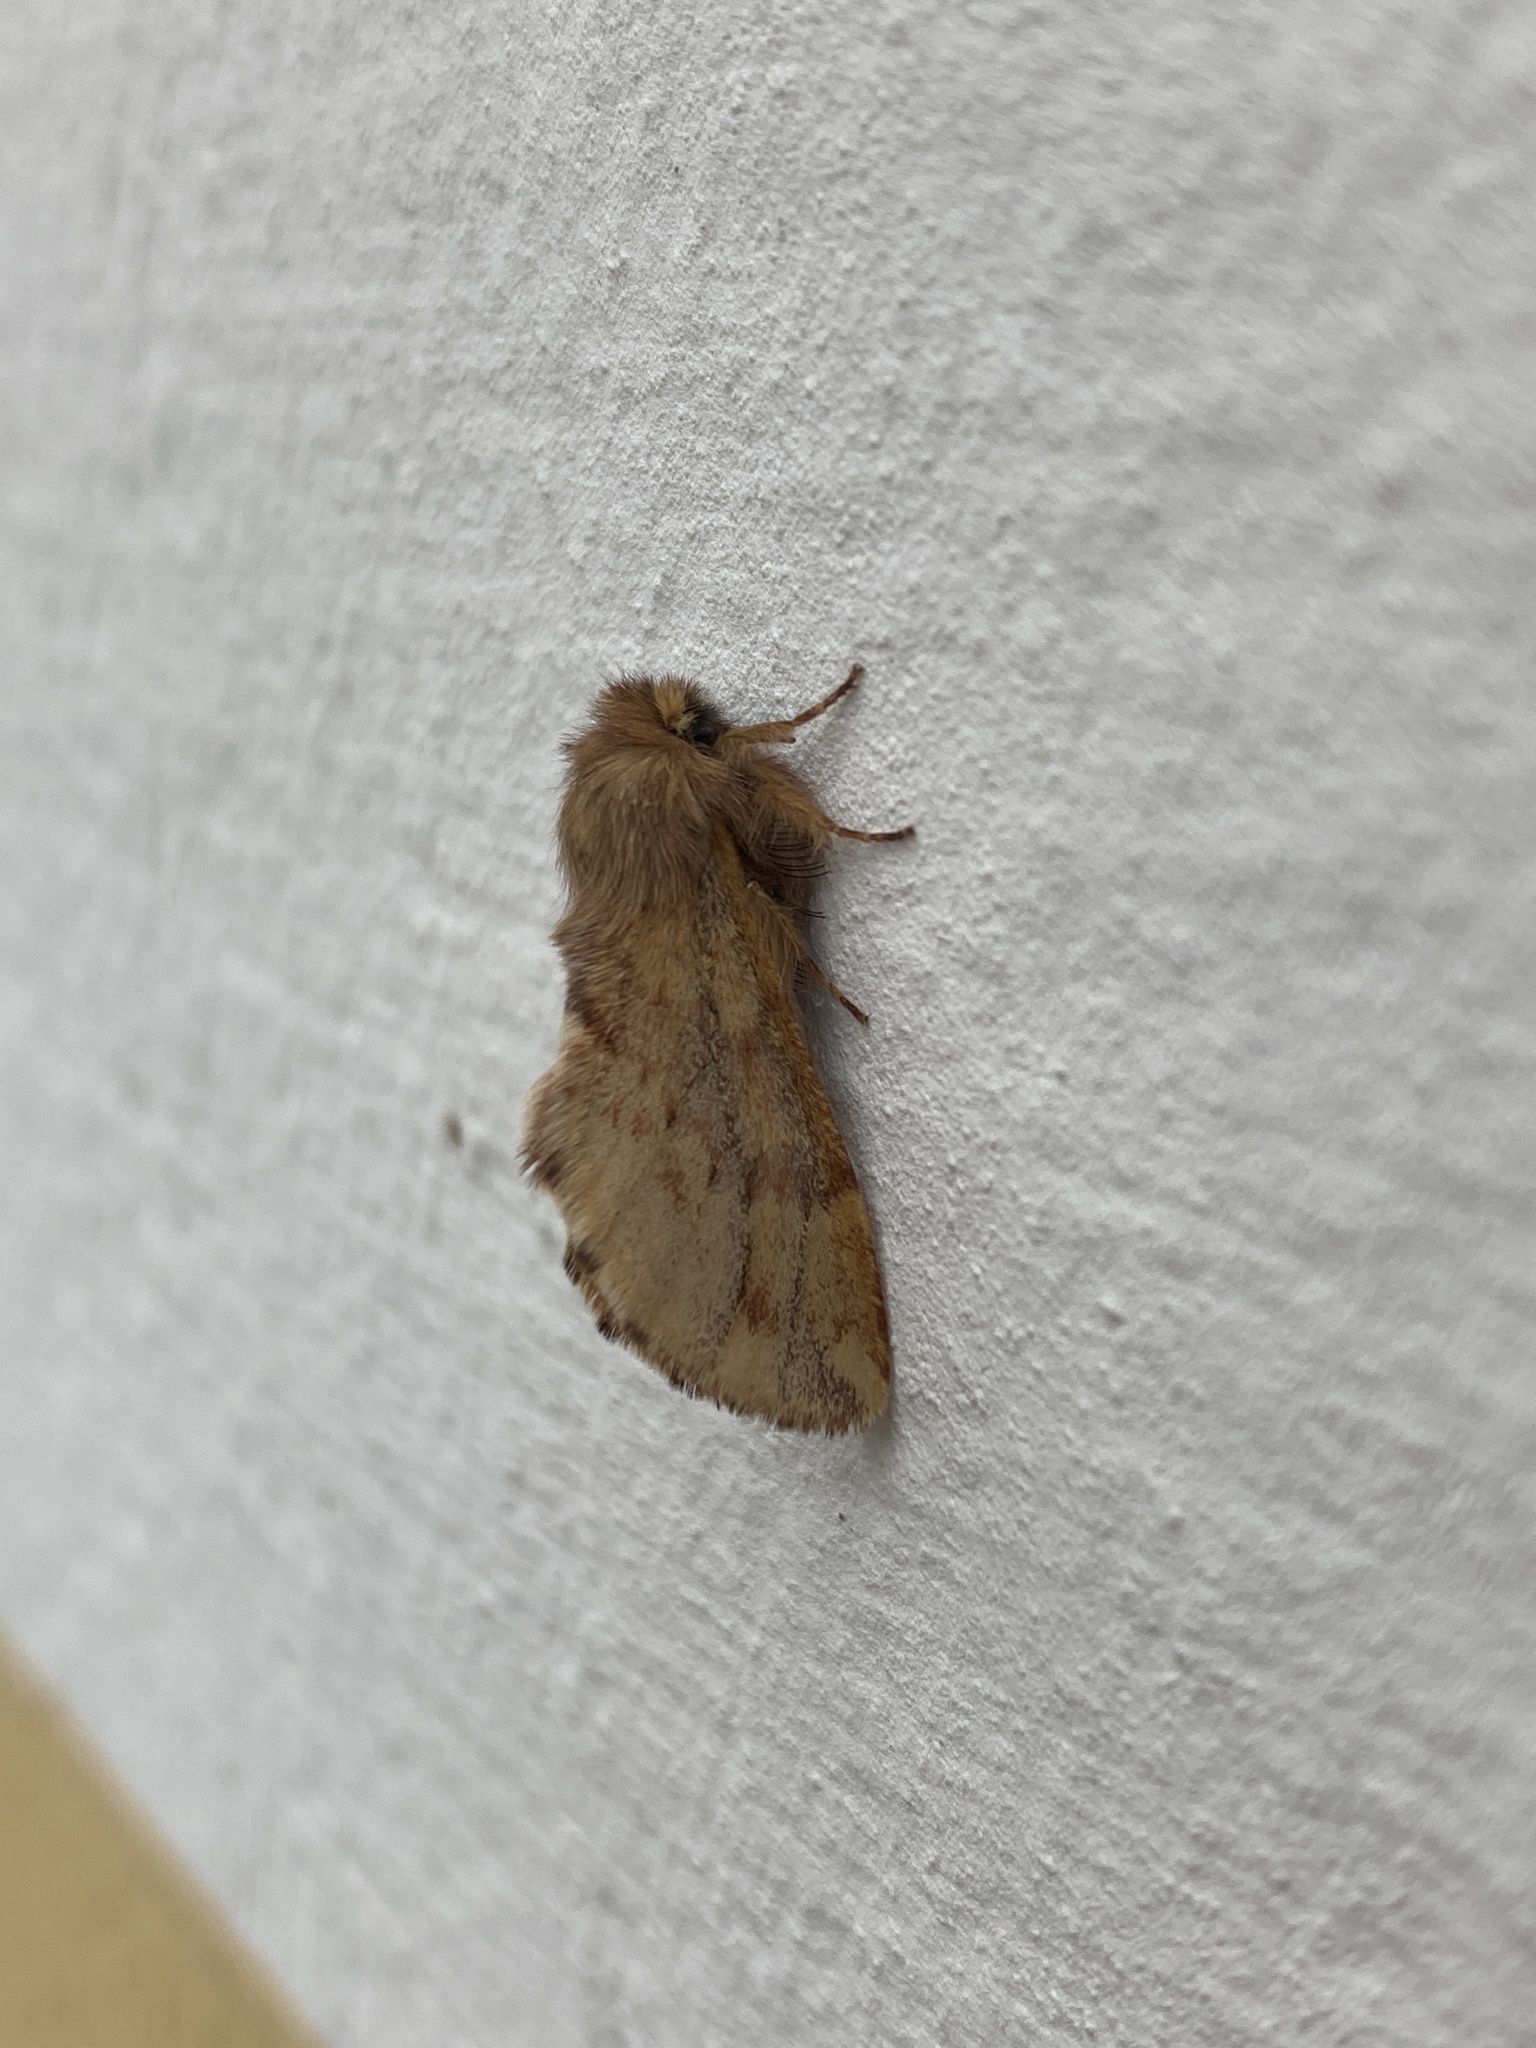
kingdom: Animalia
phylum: Arthropoda
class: Insecta
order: Lepidoptera
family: Notodontidae
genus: Ptilophora
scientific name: Ptilophora plumigera
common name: Plumed prominent
